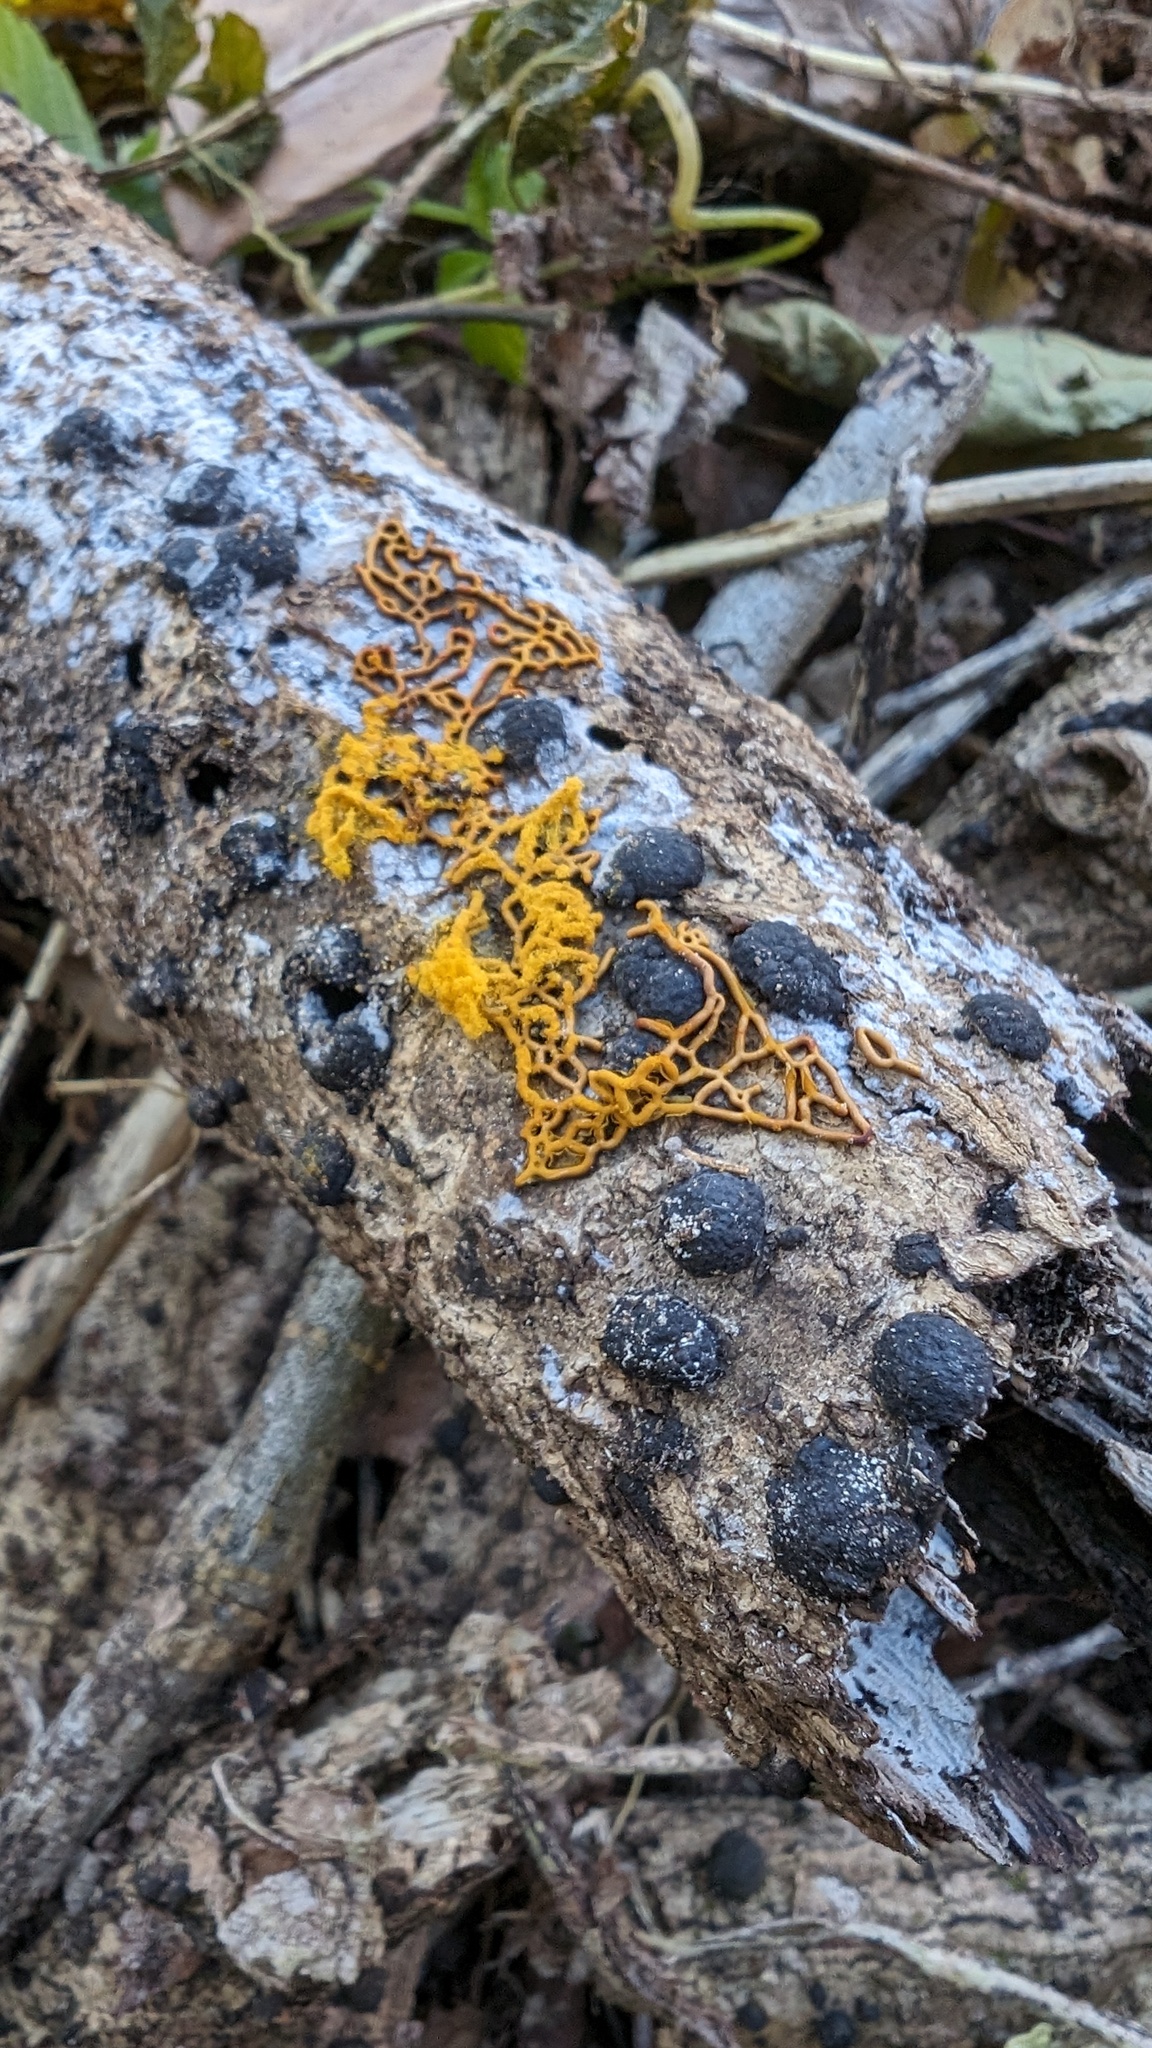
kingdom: Protozoa
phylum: Mycetozoa
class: Myxomycetes
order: Trichiales
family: Arcyriaceae
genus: Hemitrichia
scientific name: Hemitrichia serpula
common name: Pretzel slime mold
